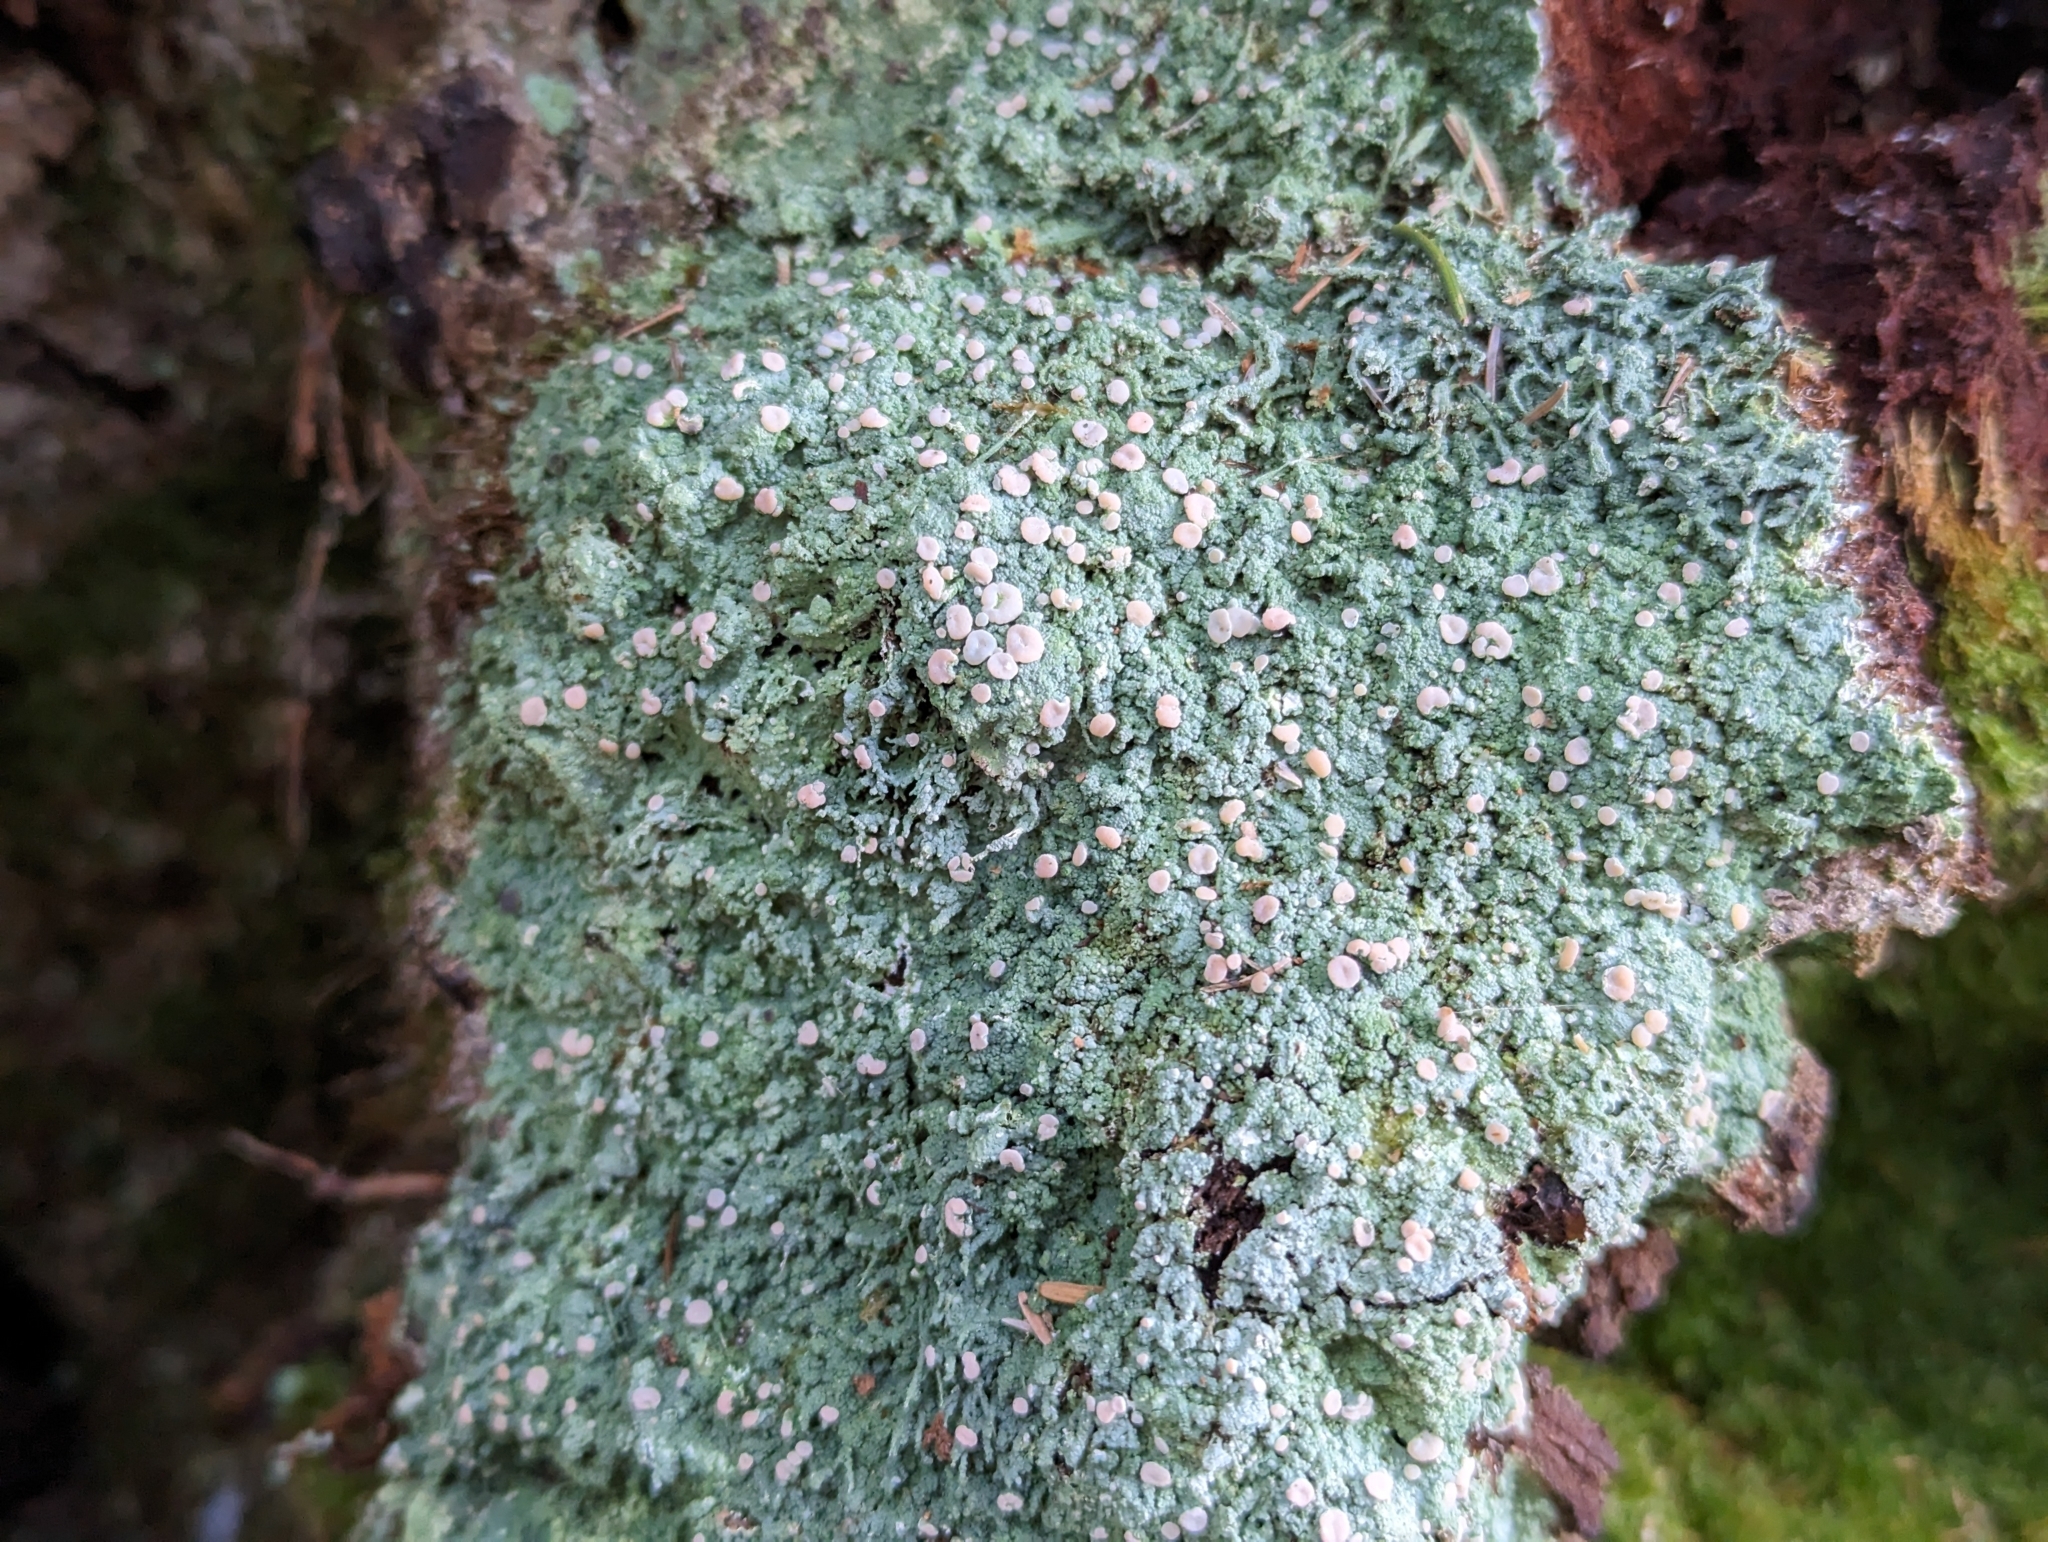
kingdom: Fungi
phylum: Ascomycota
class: Lecanoromycetes
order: Pertusariales
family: Icmadophilaceae
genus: Icmadophila
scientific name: Icmadophila ericetorum
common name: Candy lichen
